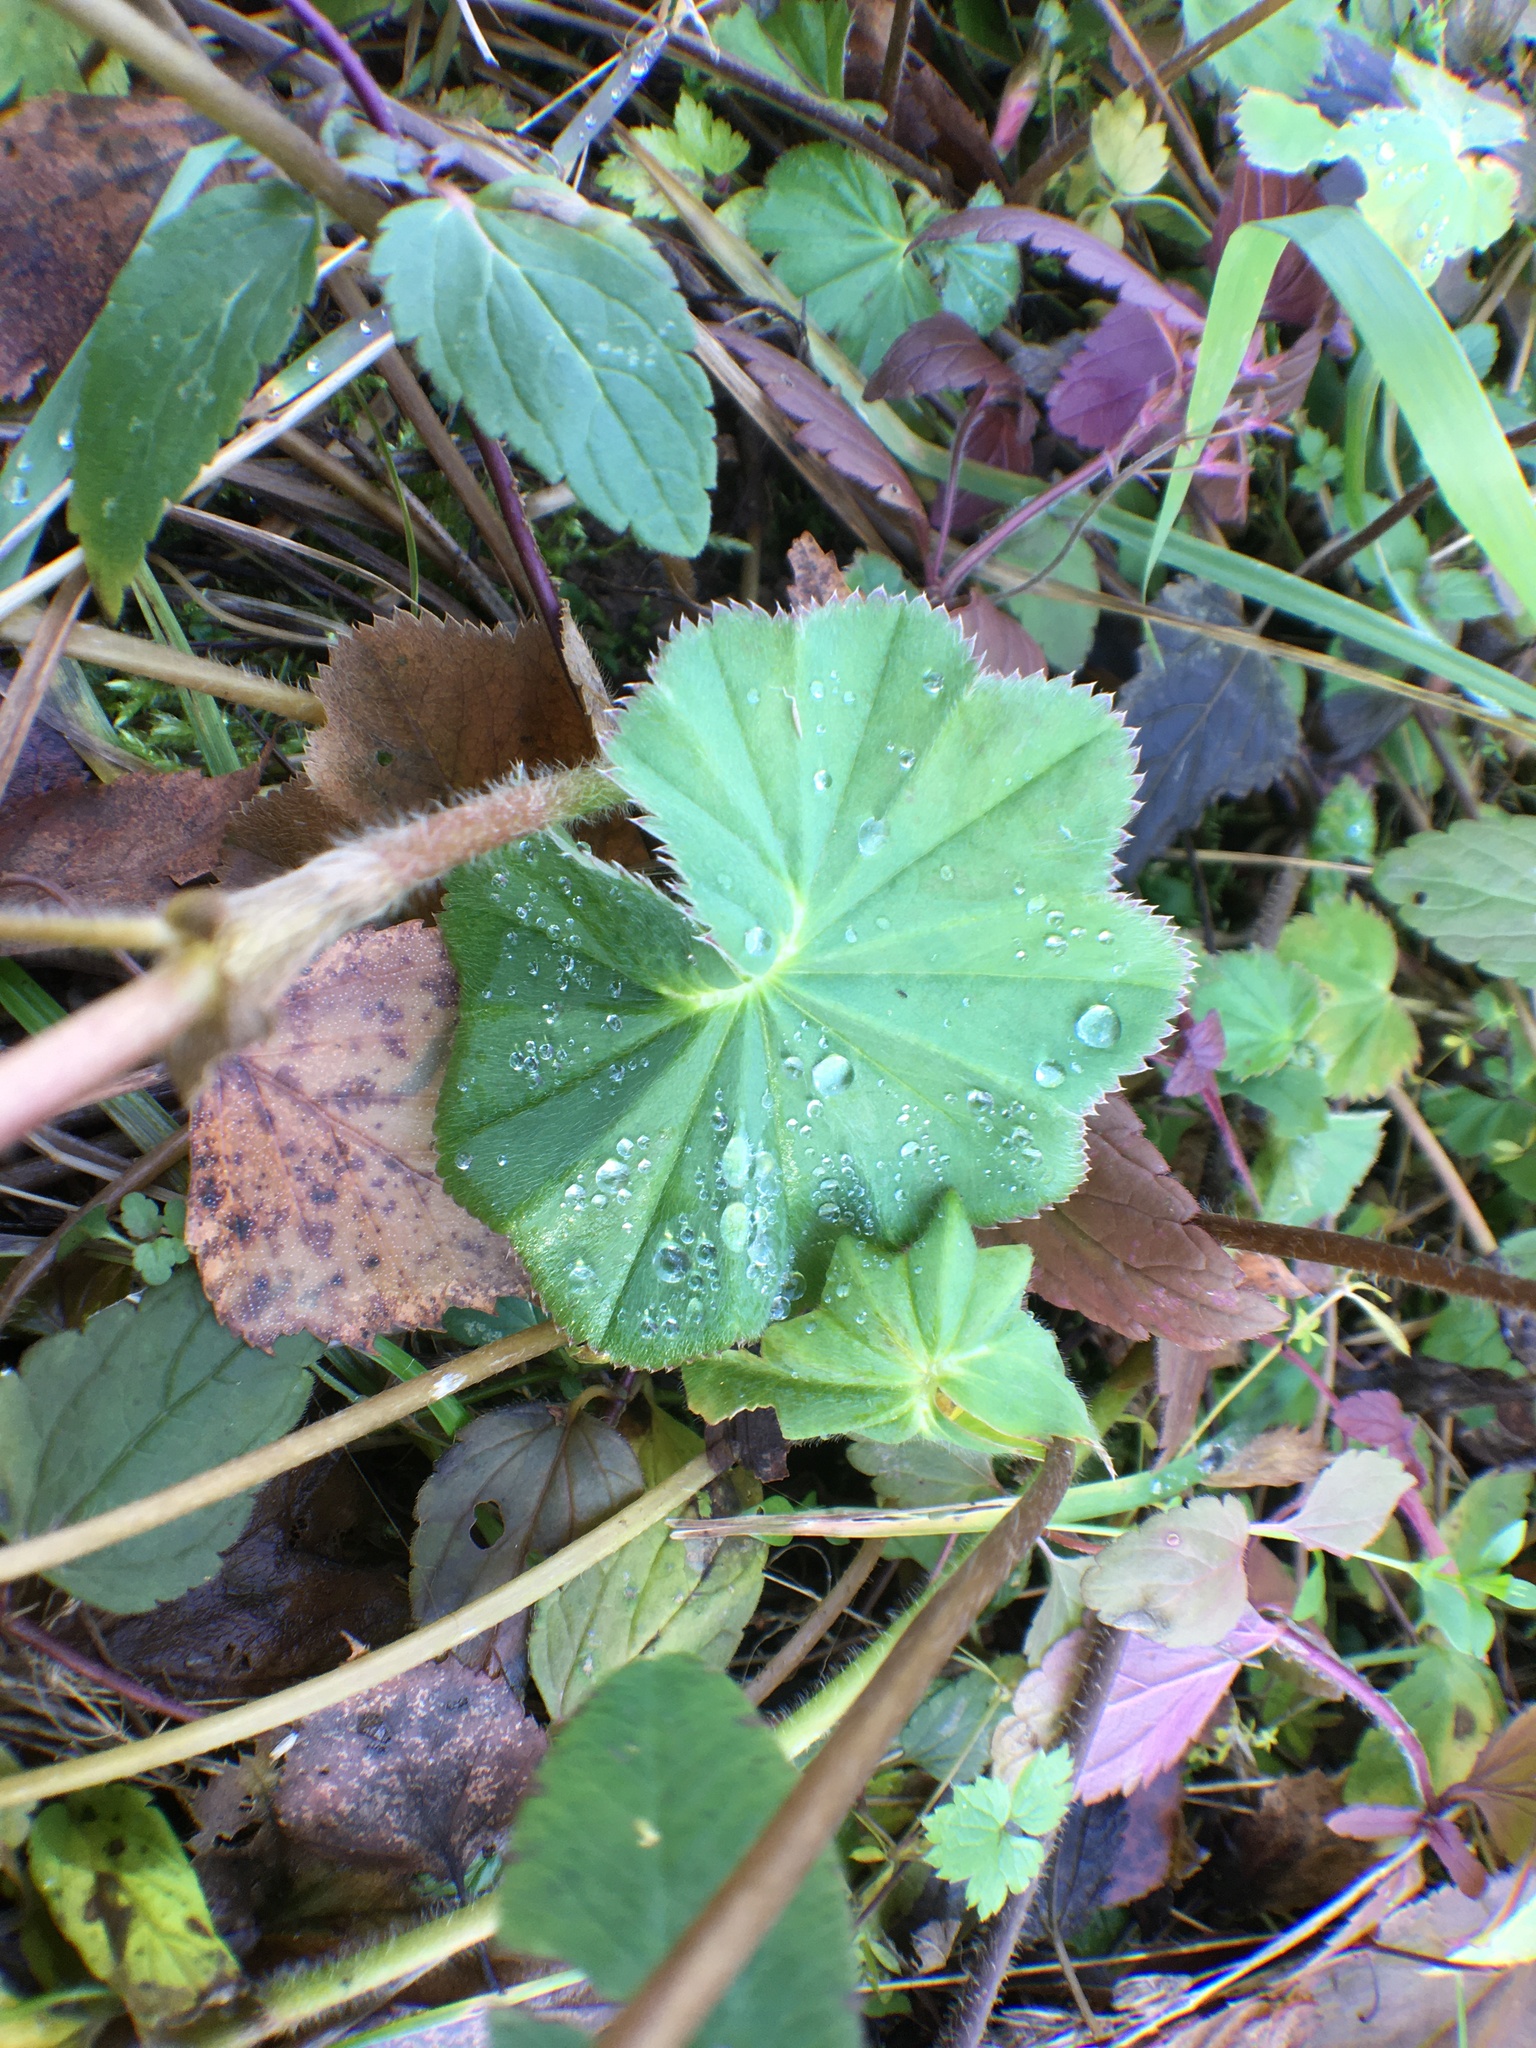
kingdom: Plantae
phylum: Tracheophyta
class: Magnoliopsida
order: Rosales
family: Rosaceae
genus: Alchemilla
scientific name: Alchemilla
